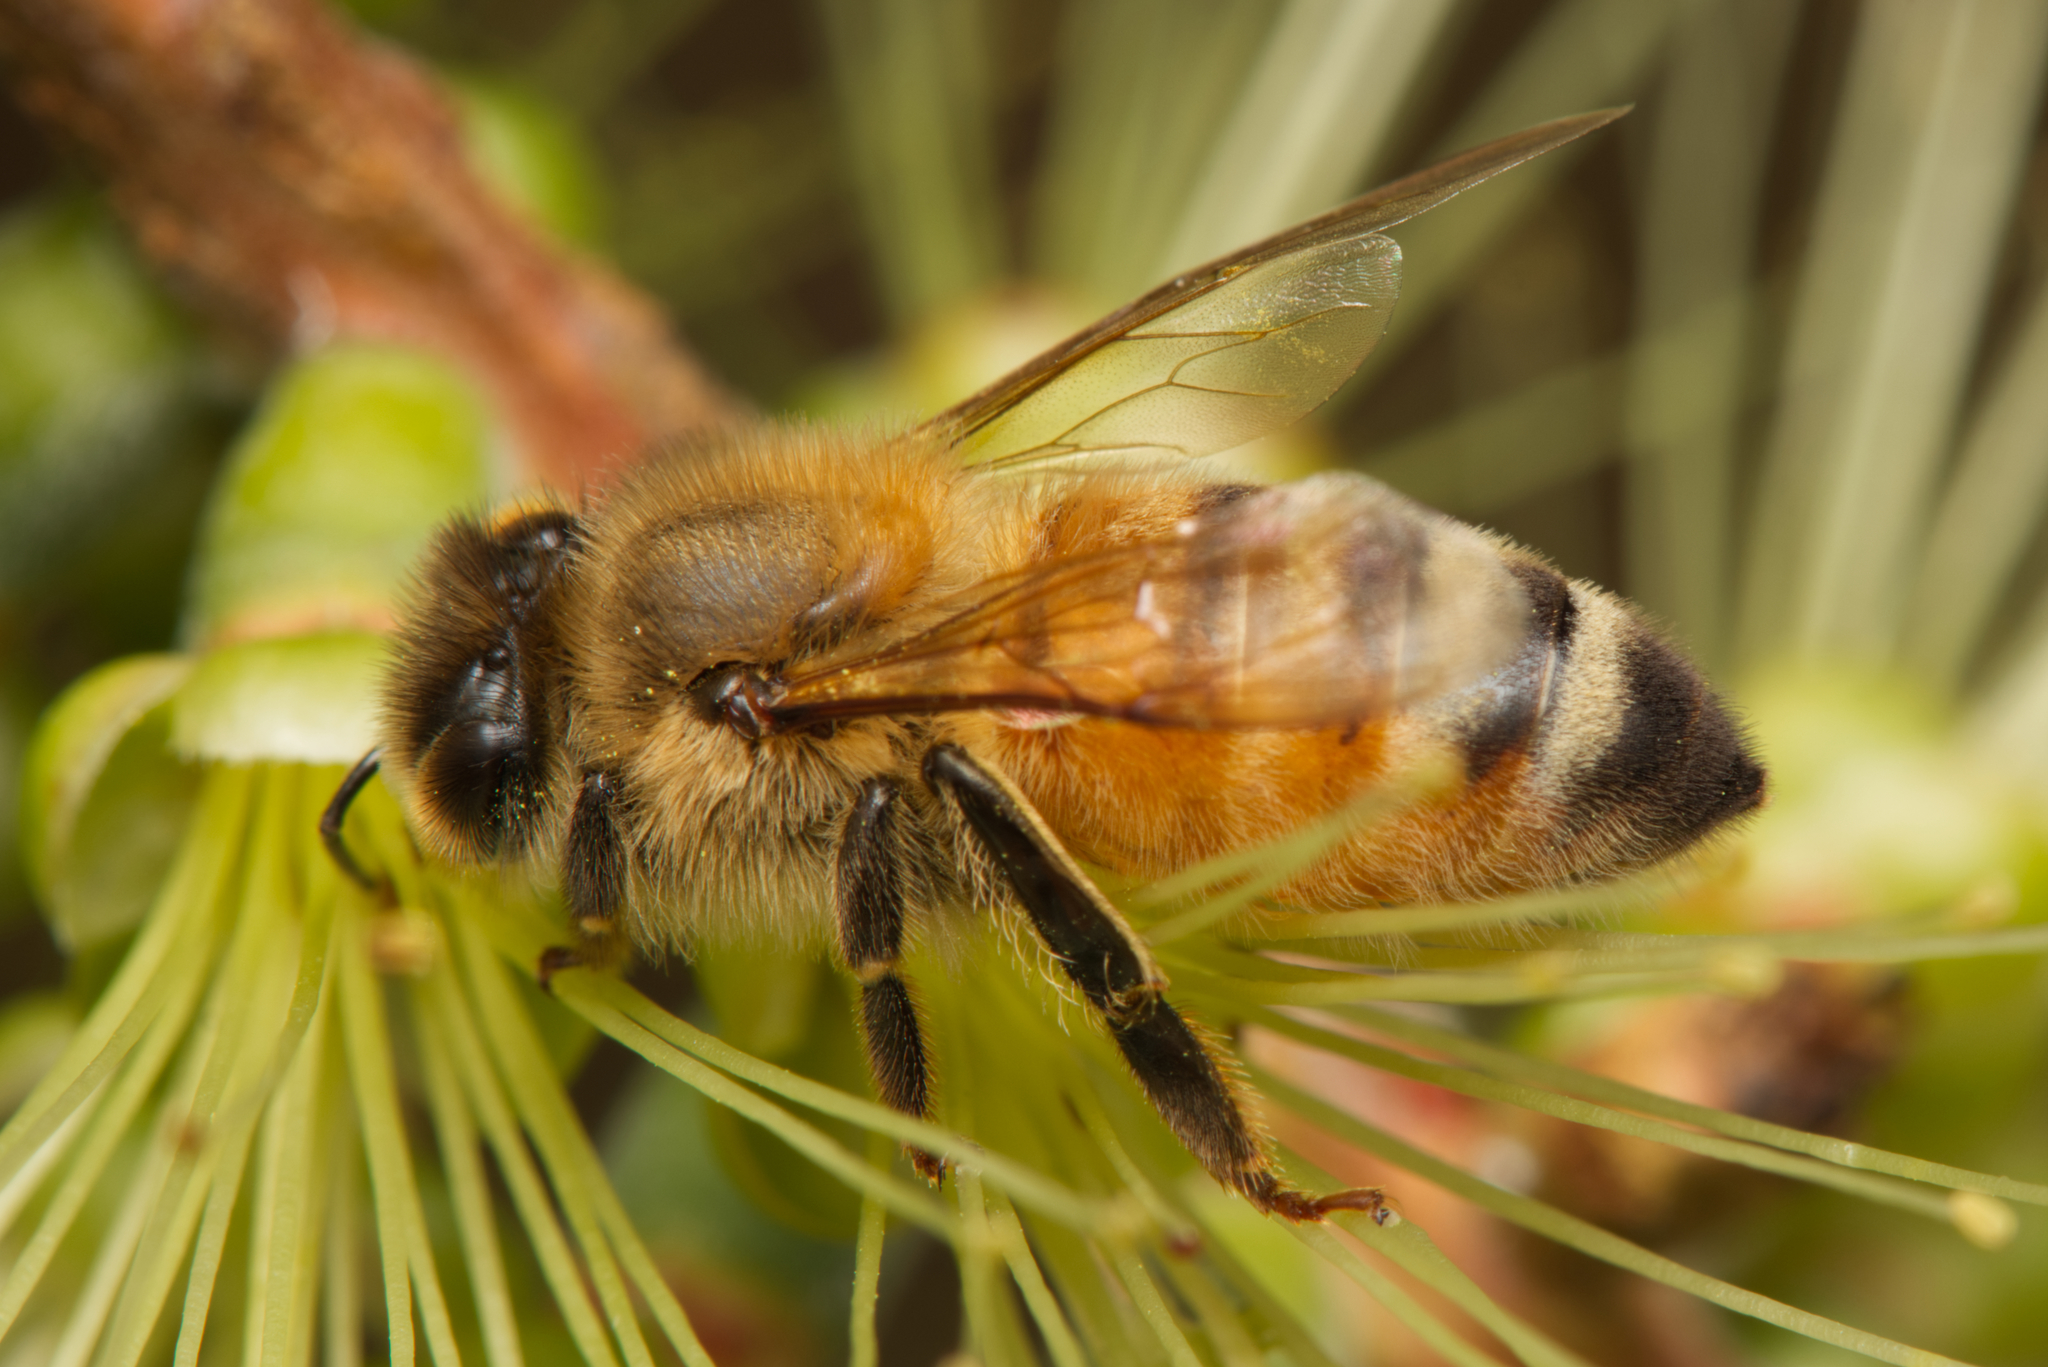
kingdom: Animalia
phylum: Arthropoda
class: Insecta
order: Hymenoptera
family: Apidae
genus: Apis
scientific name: Apis mellifera
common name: Honey bee
